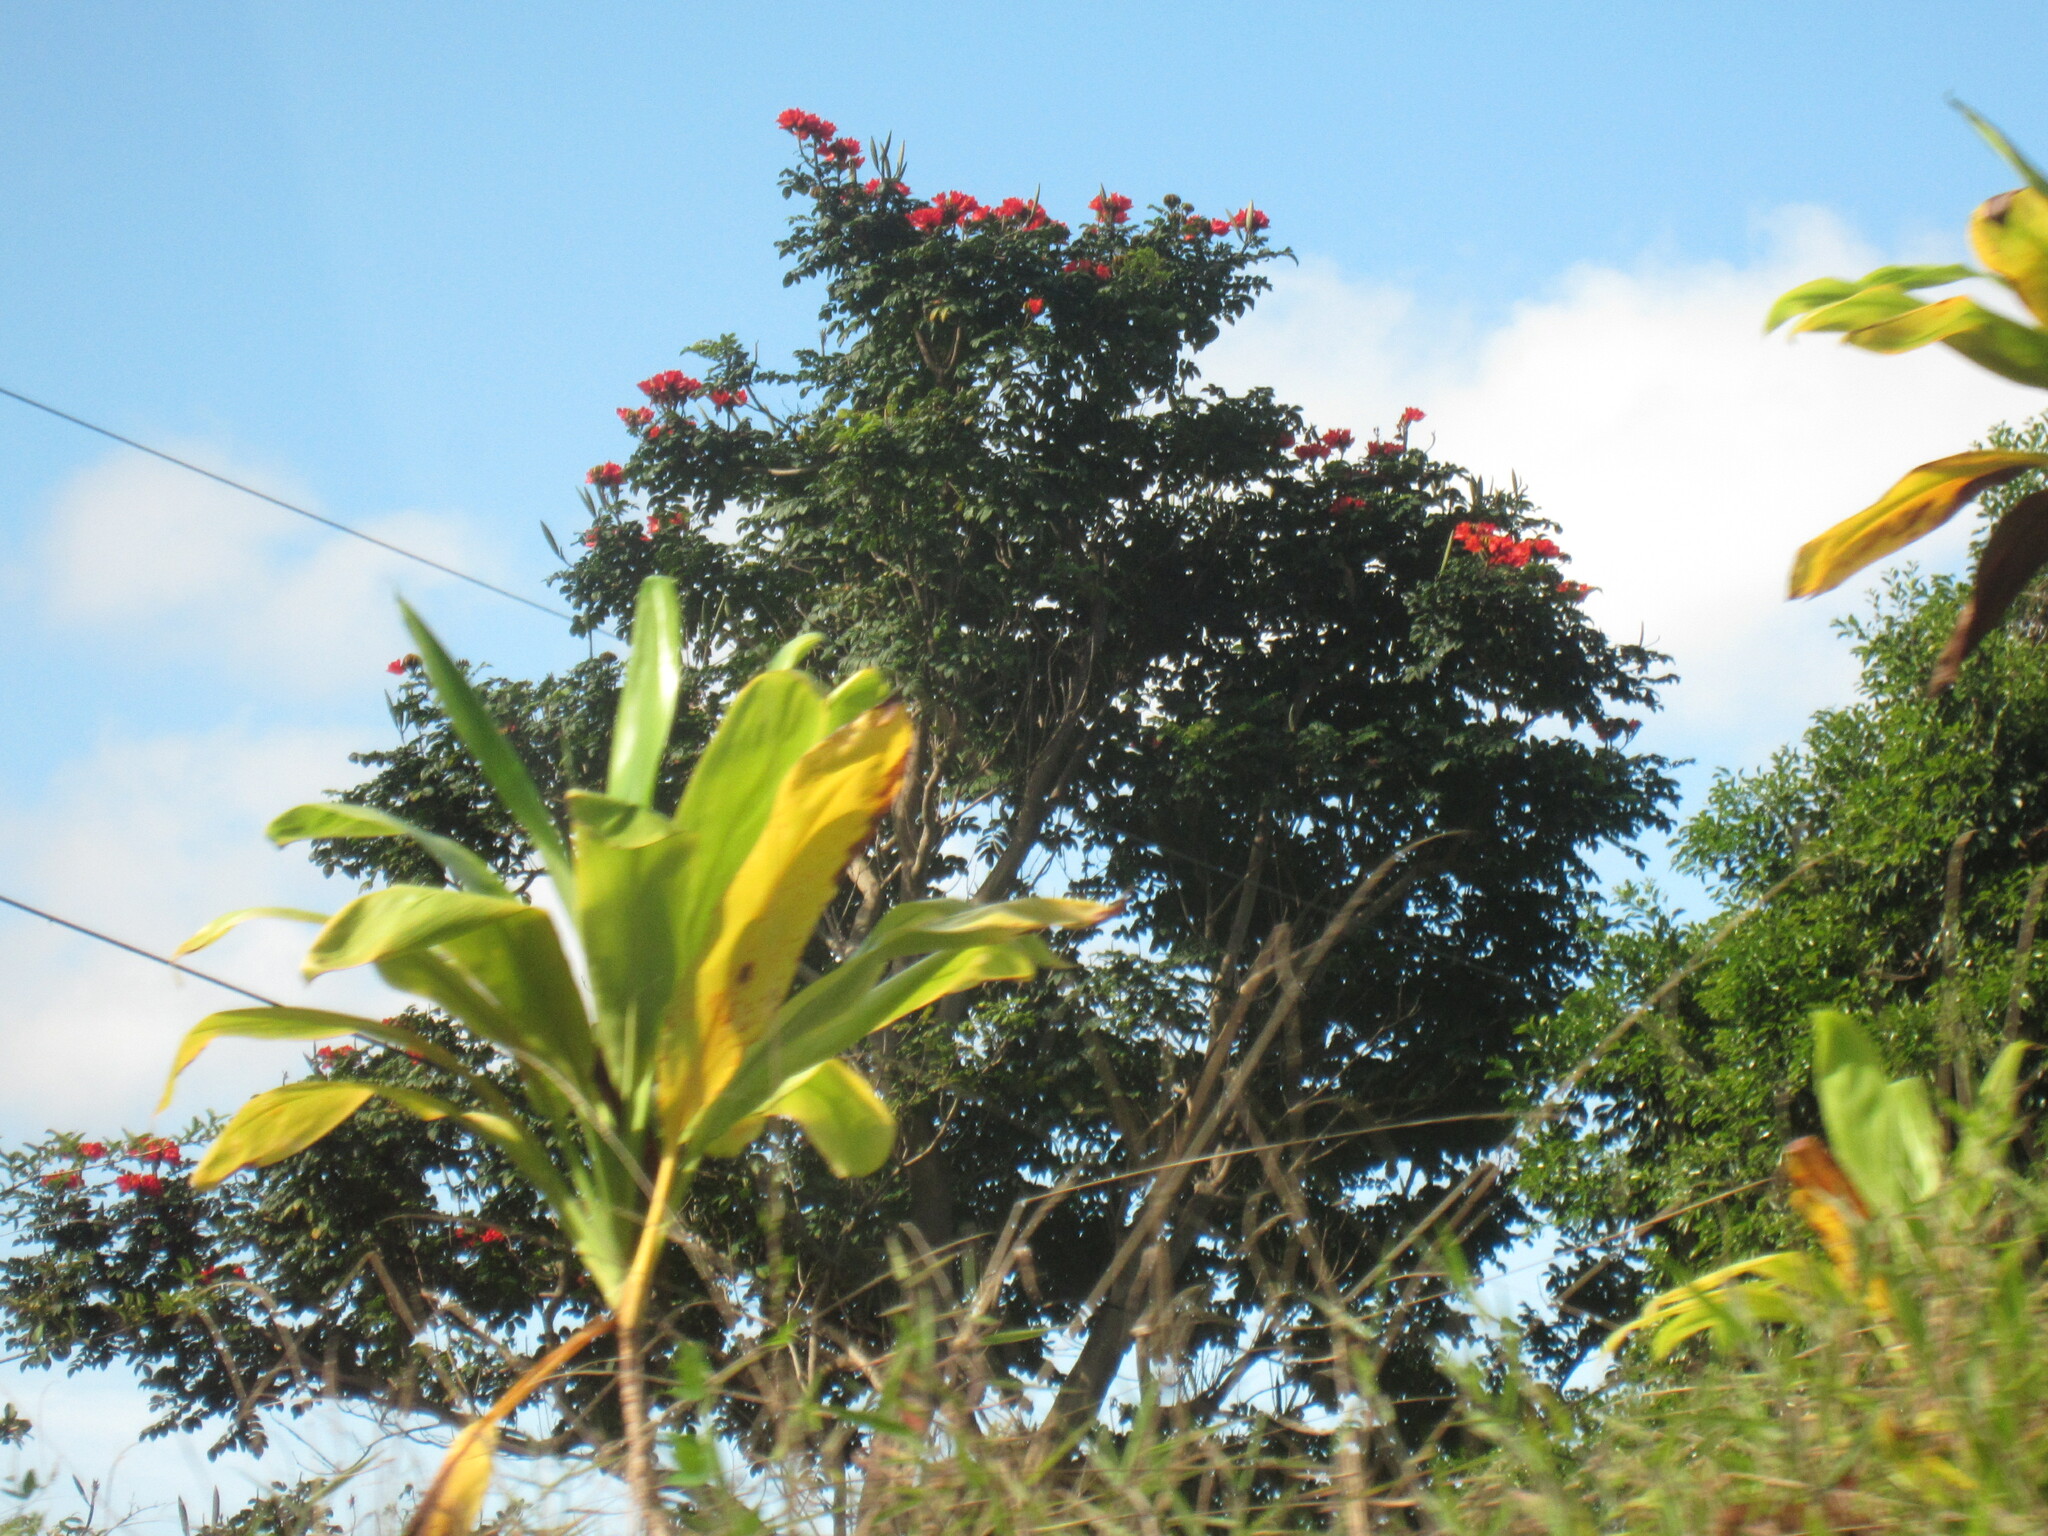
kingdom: Plantae
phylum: Tracheophyta
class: Magnoliopsida
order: Lamiales
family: Bignoniaceae
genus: Spathodea
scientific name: Spathodea campanulata
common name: African tuliptree
